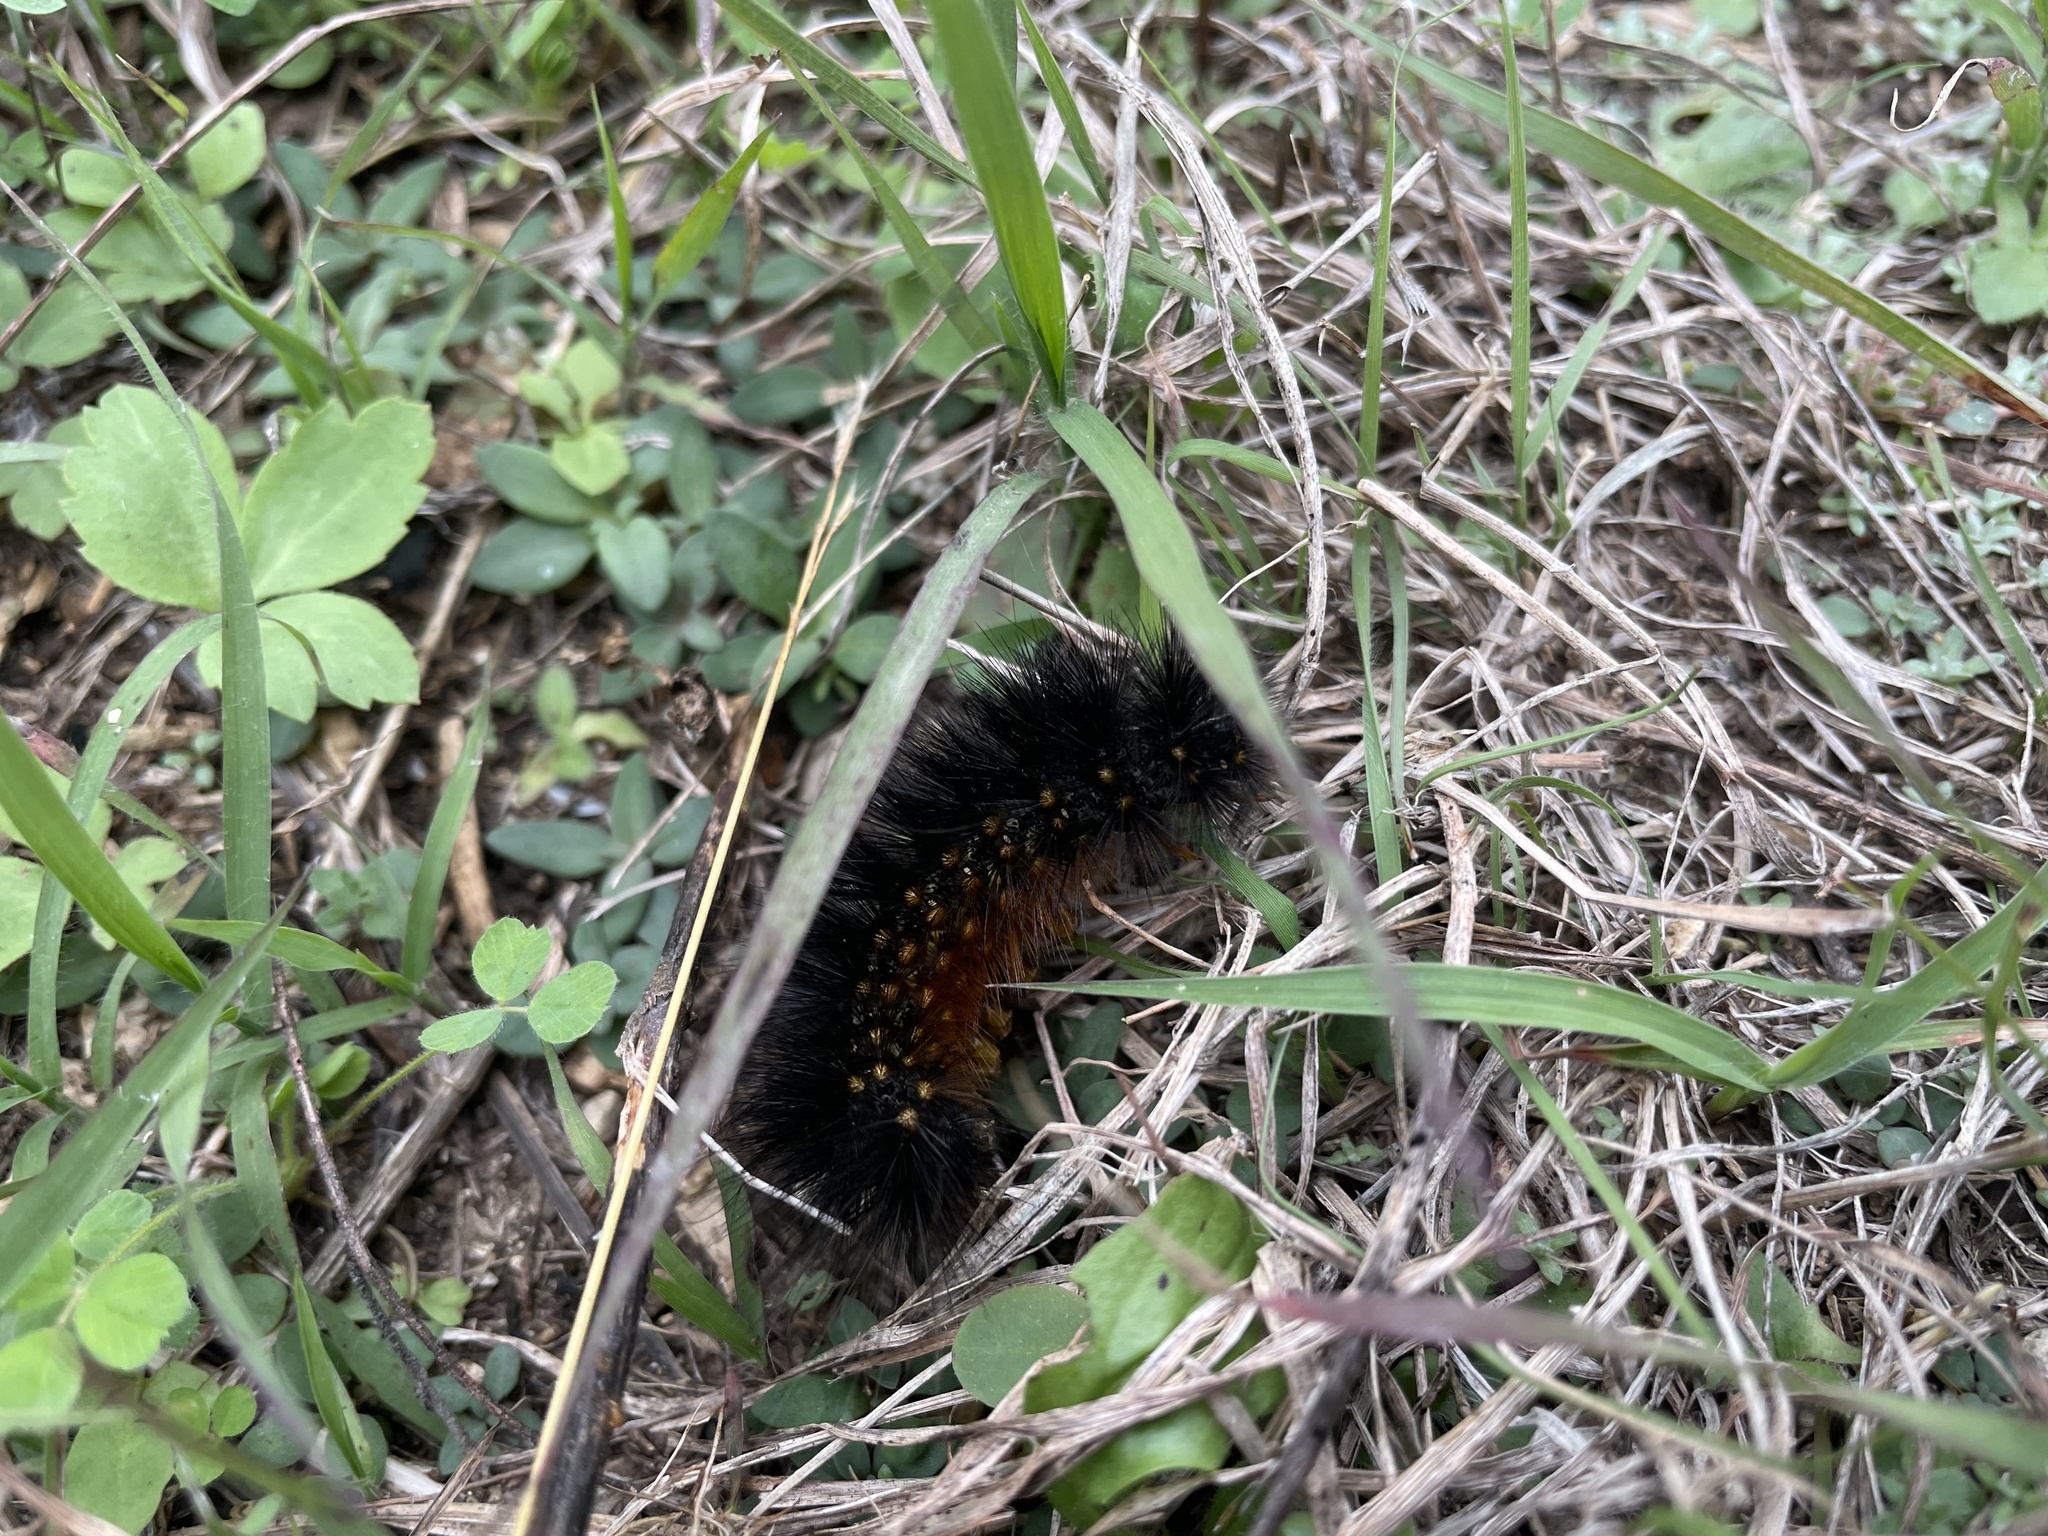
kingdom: Animalia
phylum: Arthropoda
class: Insecta
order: Lepidoptera
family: Erebidae
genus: Estigmene
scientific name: Estigmene acrea
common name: Salt marsh moth
